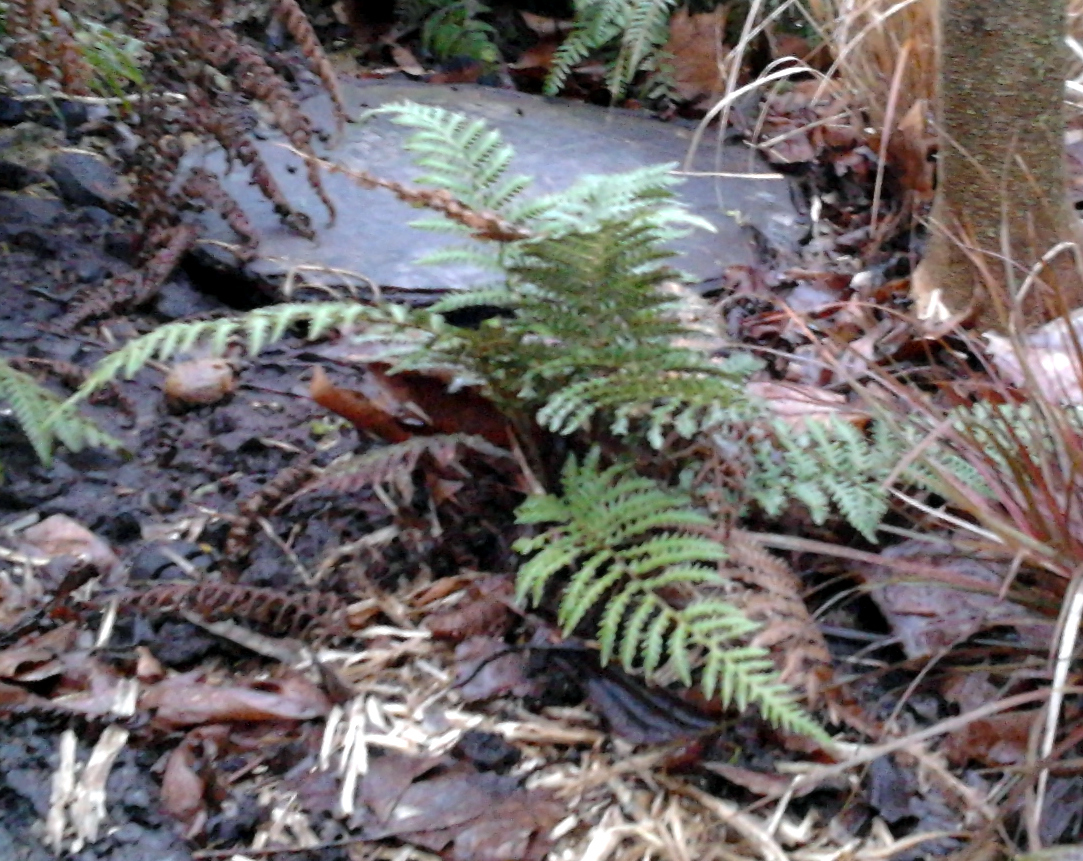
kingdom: Plantae
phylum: Tracheophyta
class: Polypodiopsida
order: Cyatheales
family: Dicksoniaceae
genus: Dicksonia
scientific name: Dicksonia fibrosa
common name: Golden tree fern
